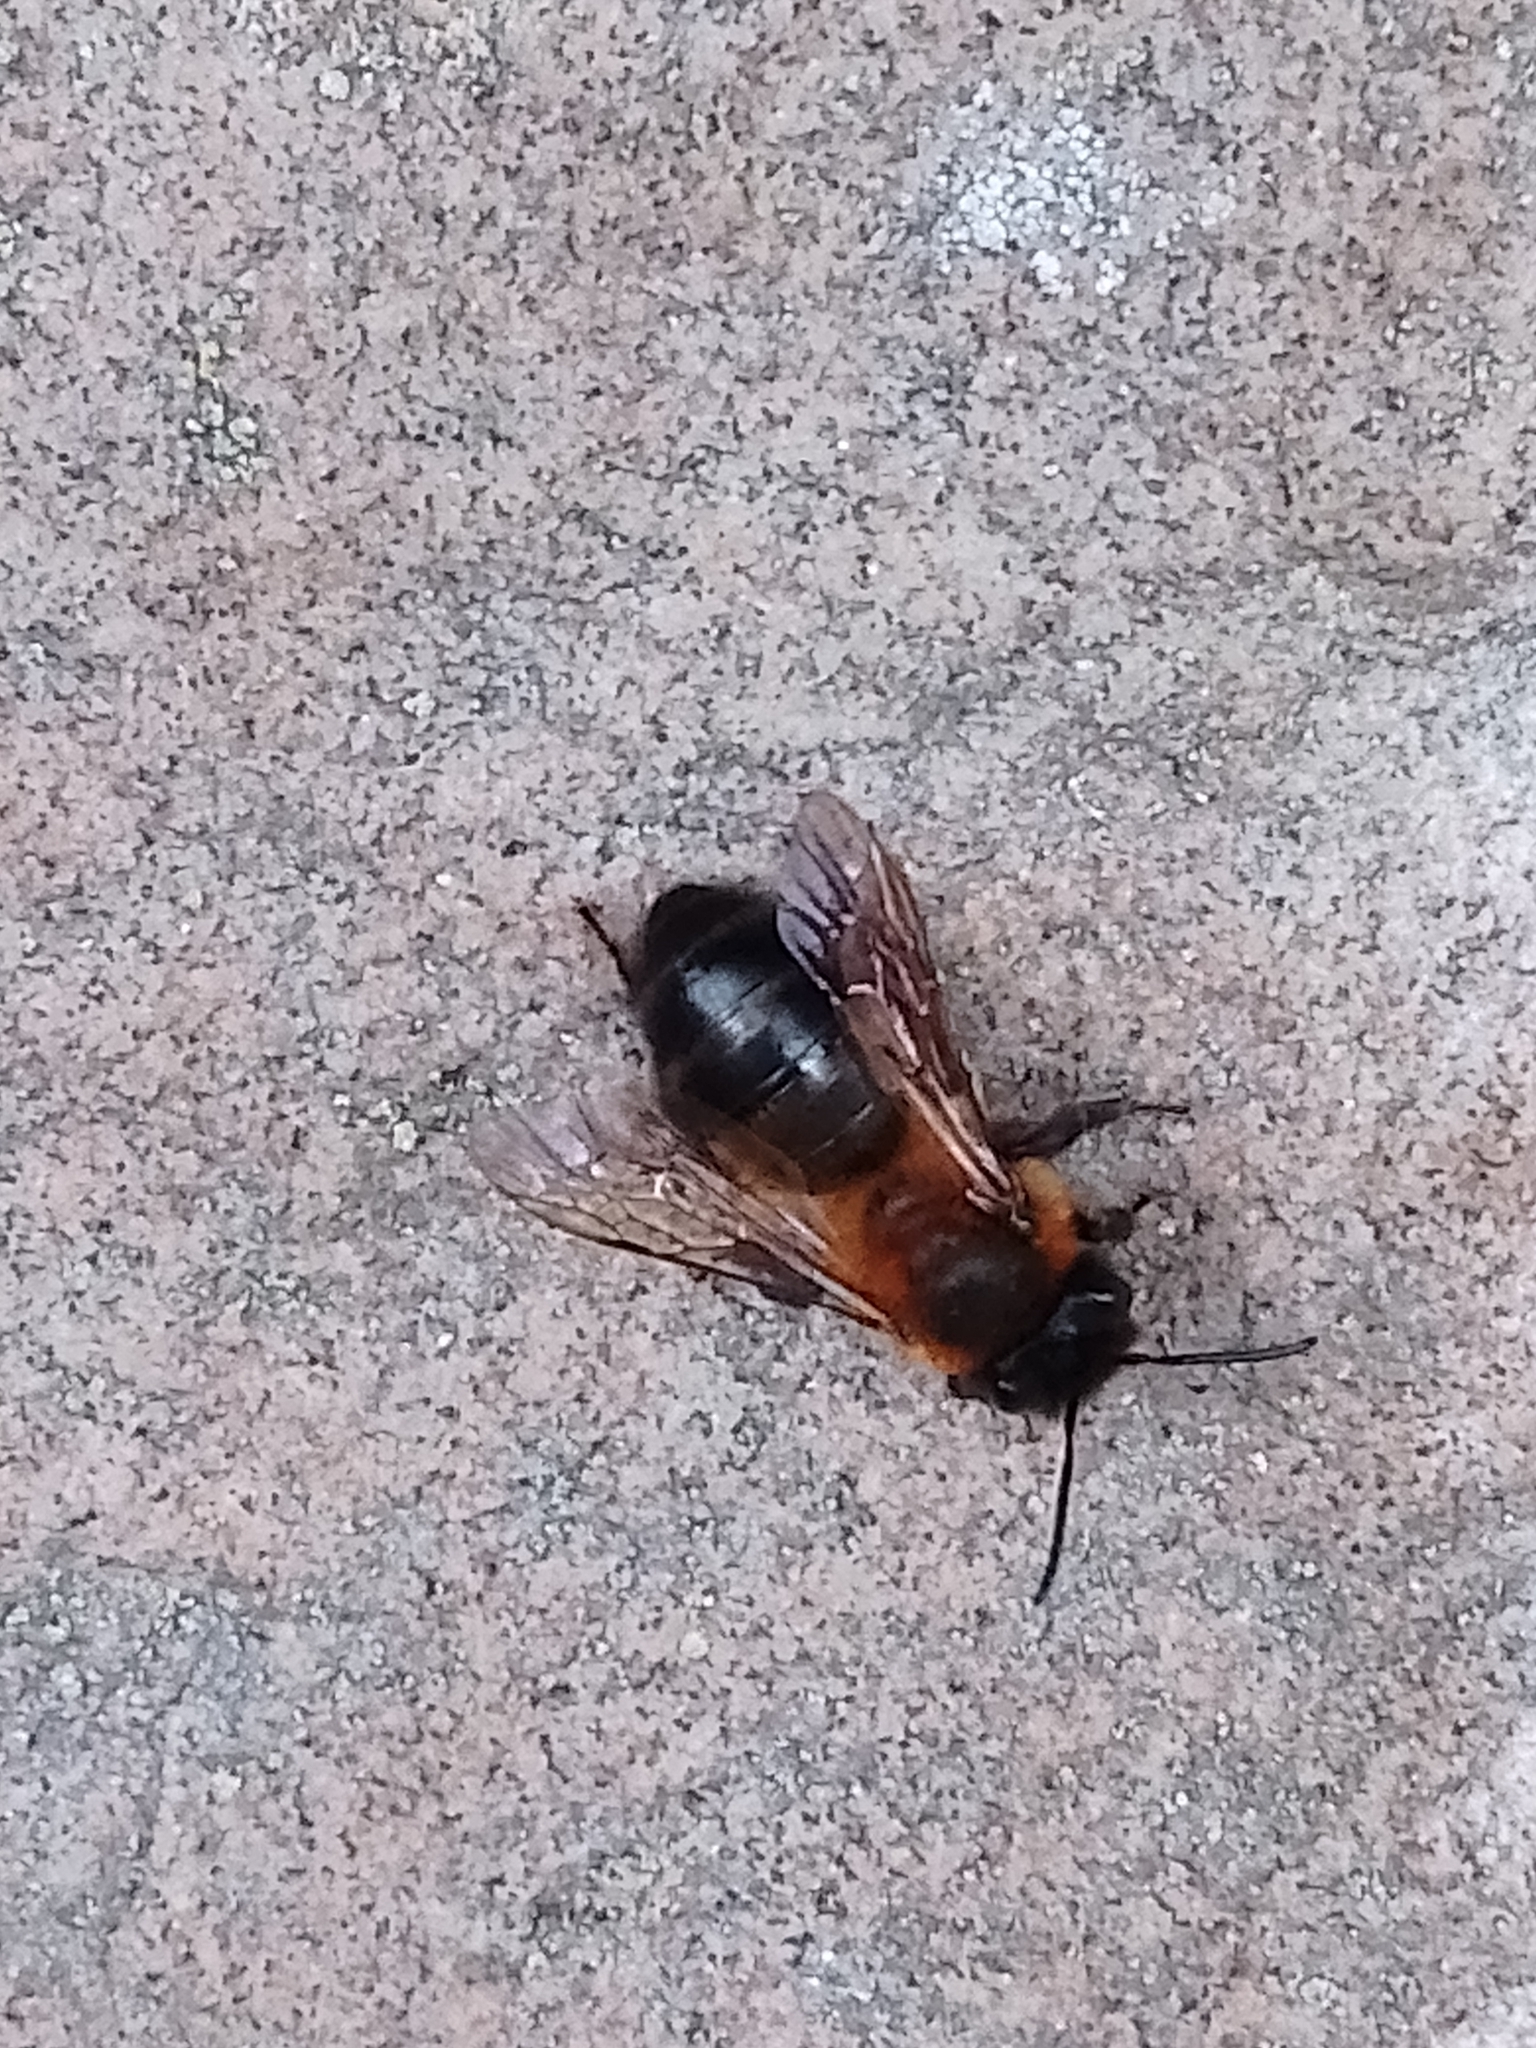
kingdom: Animalia
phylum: Arthropoda
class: Insecta
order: Hymenoptera
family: Andrenidae
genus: Andrena
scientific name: Andrena carantonica
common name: Chocolate mining bee
